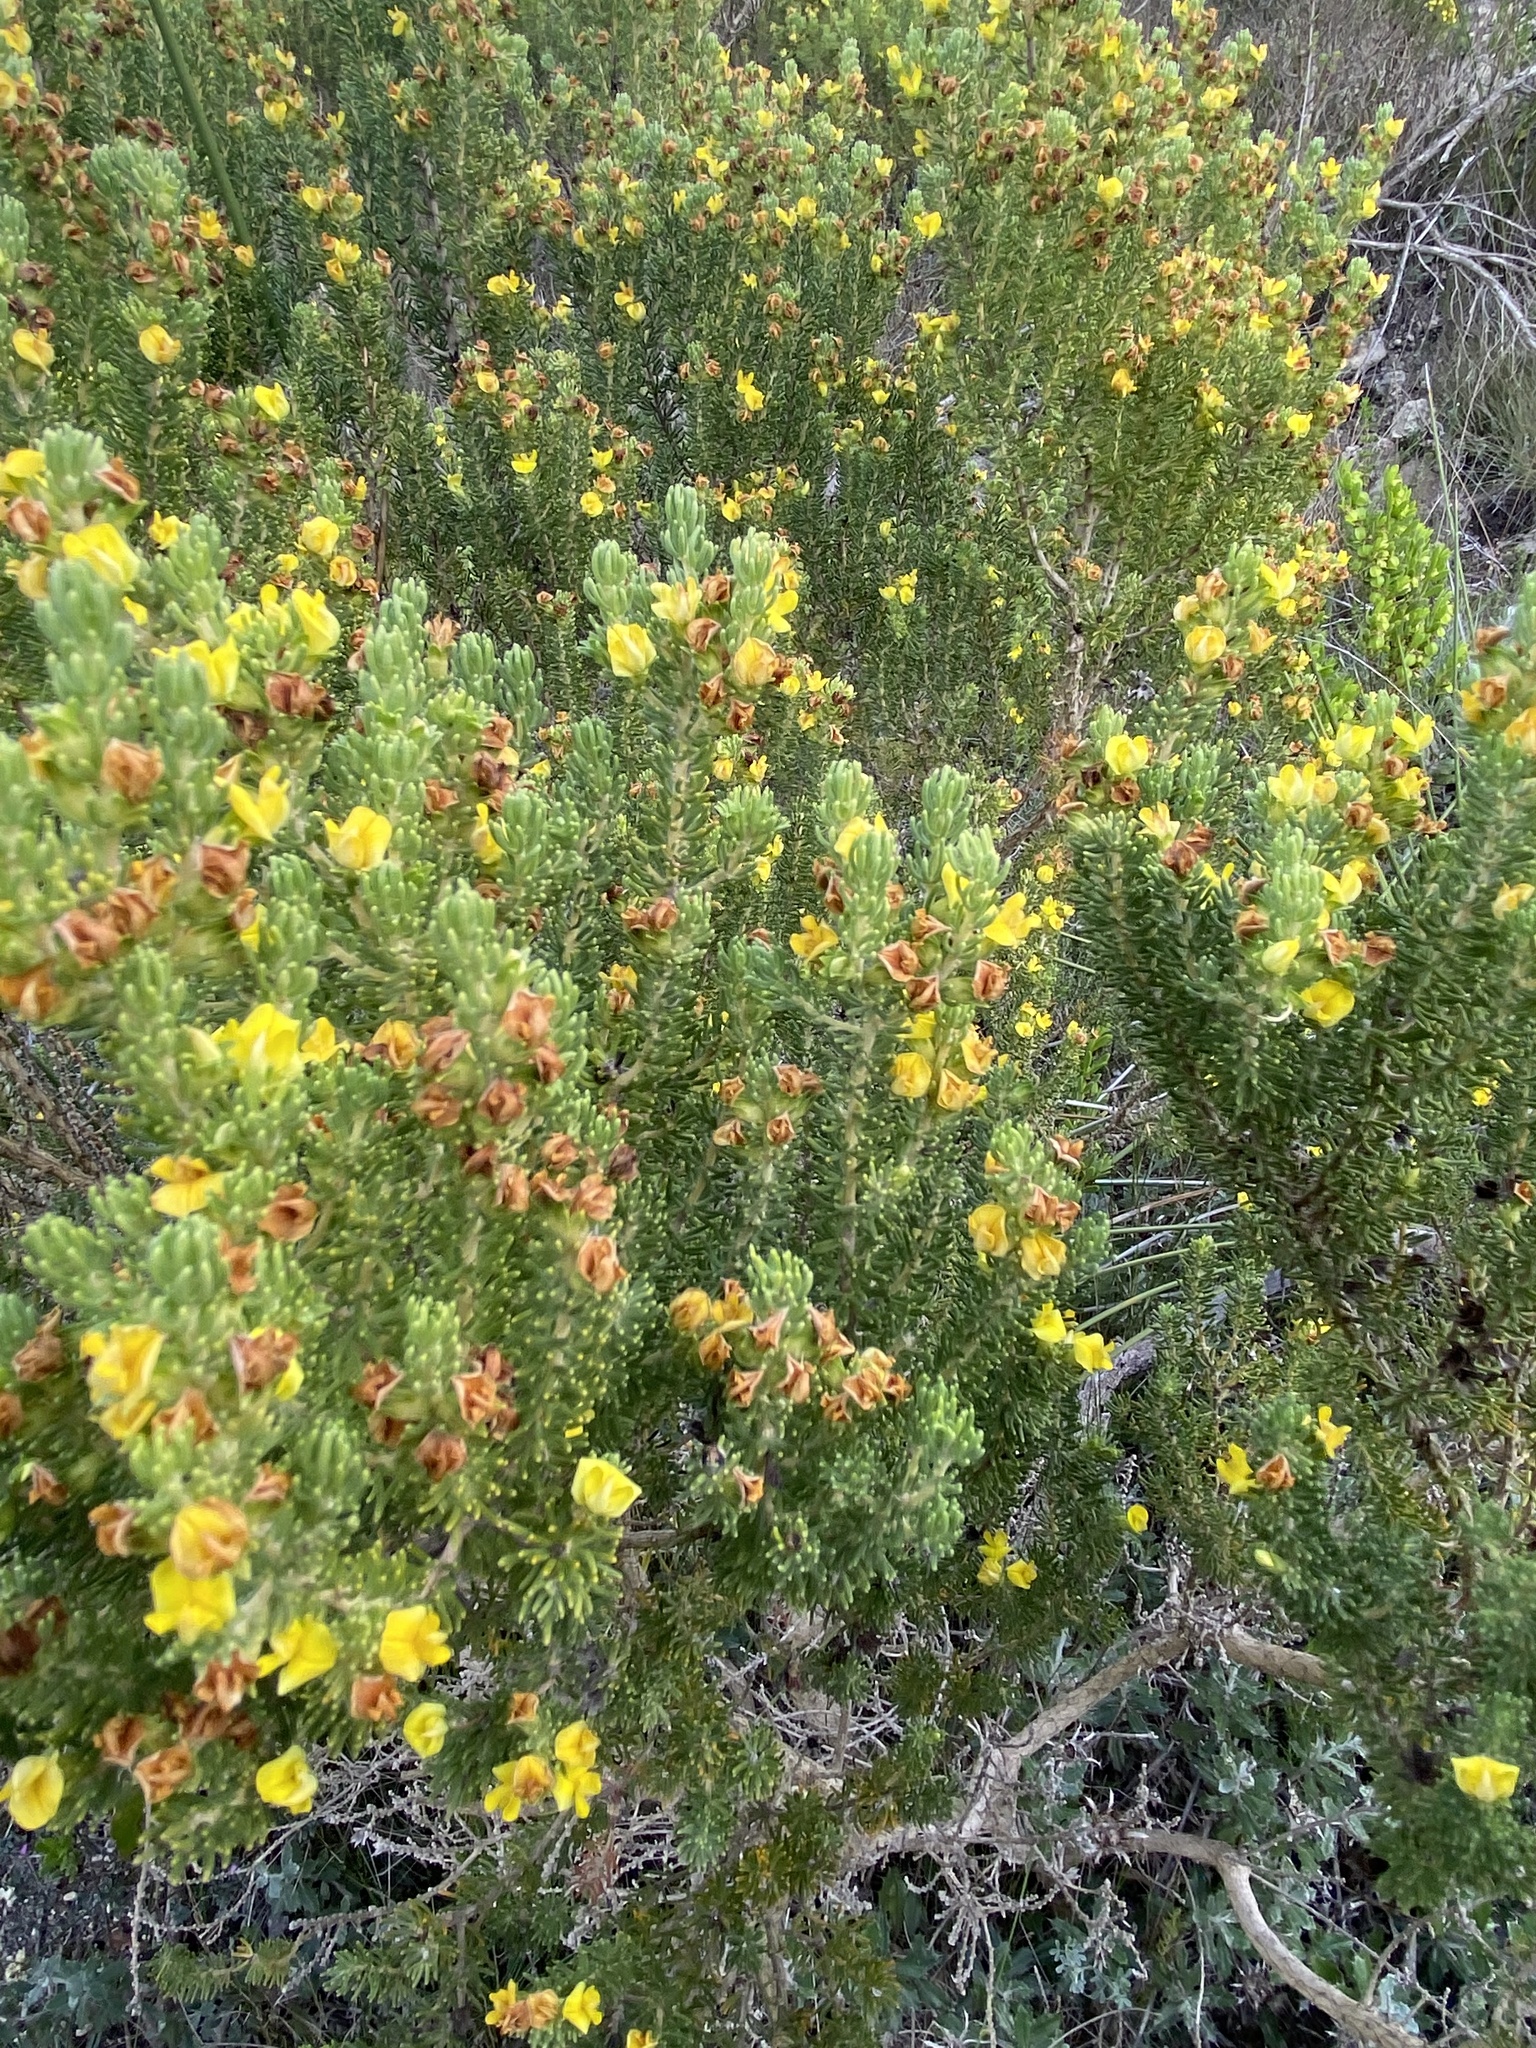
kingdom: Plantae
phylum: Tracheophyta
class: Magnoliopsida
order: Fabales
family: Fabaceae
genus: Aspalathus
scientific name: Aspalathus pallescens
